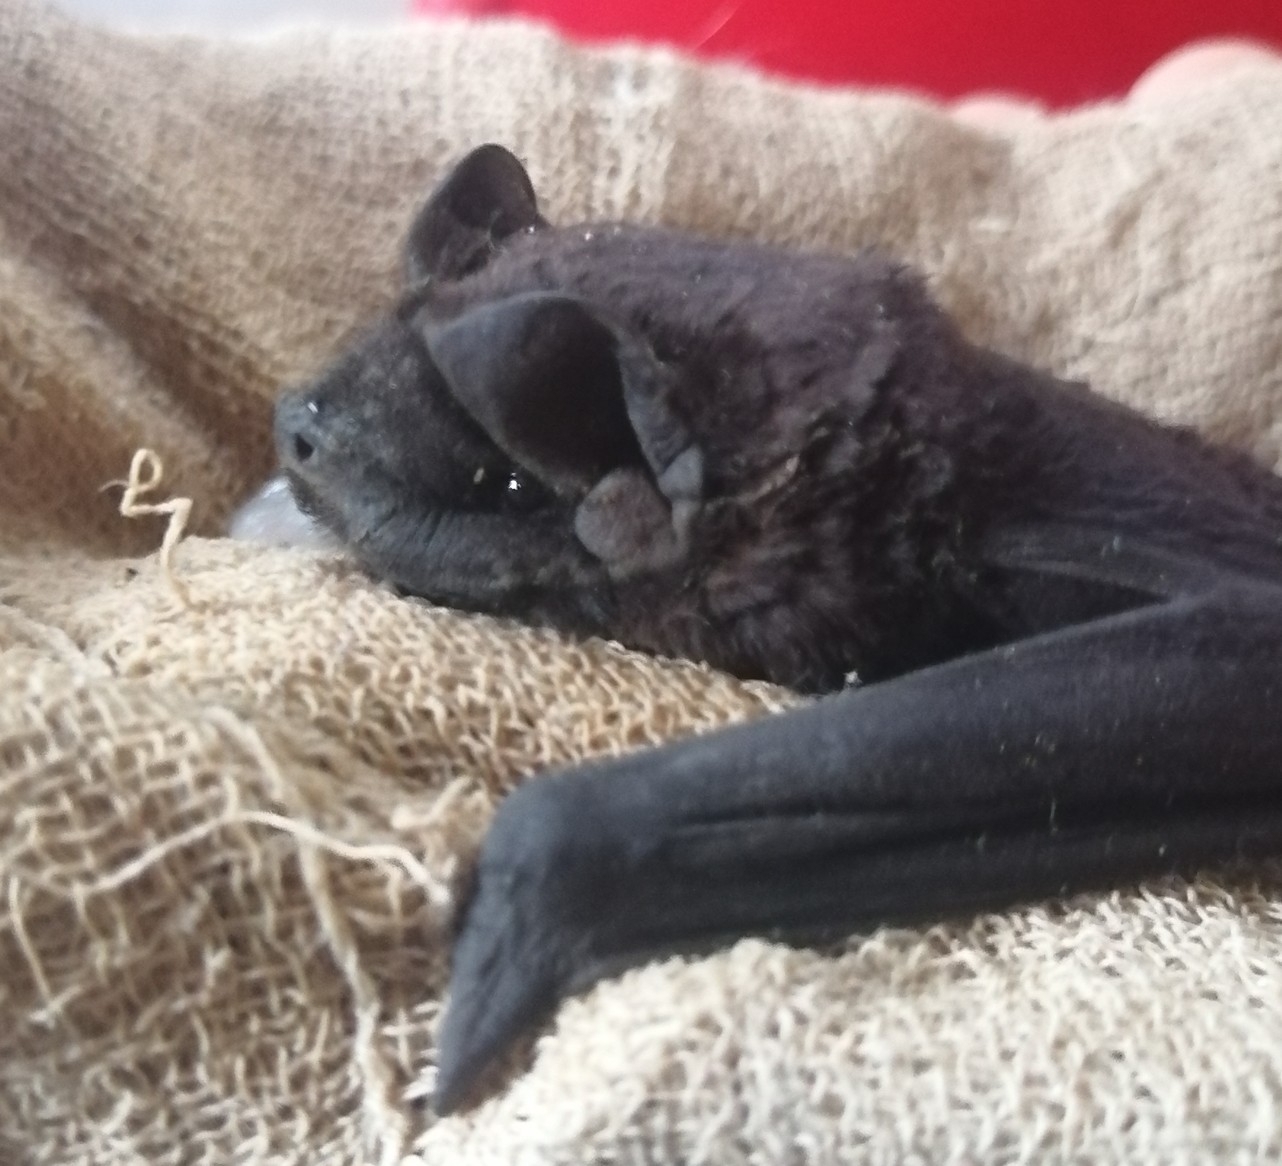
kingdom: Animalia
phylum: Chordata
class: Mammalia
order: Chiroptera
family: Molossidae
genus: Molossus
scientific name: Molossus rufus
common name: Black mastiff bat
